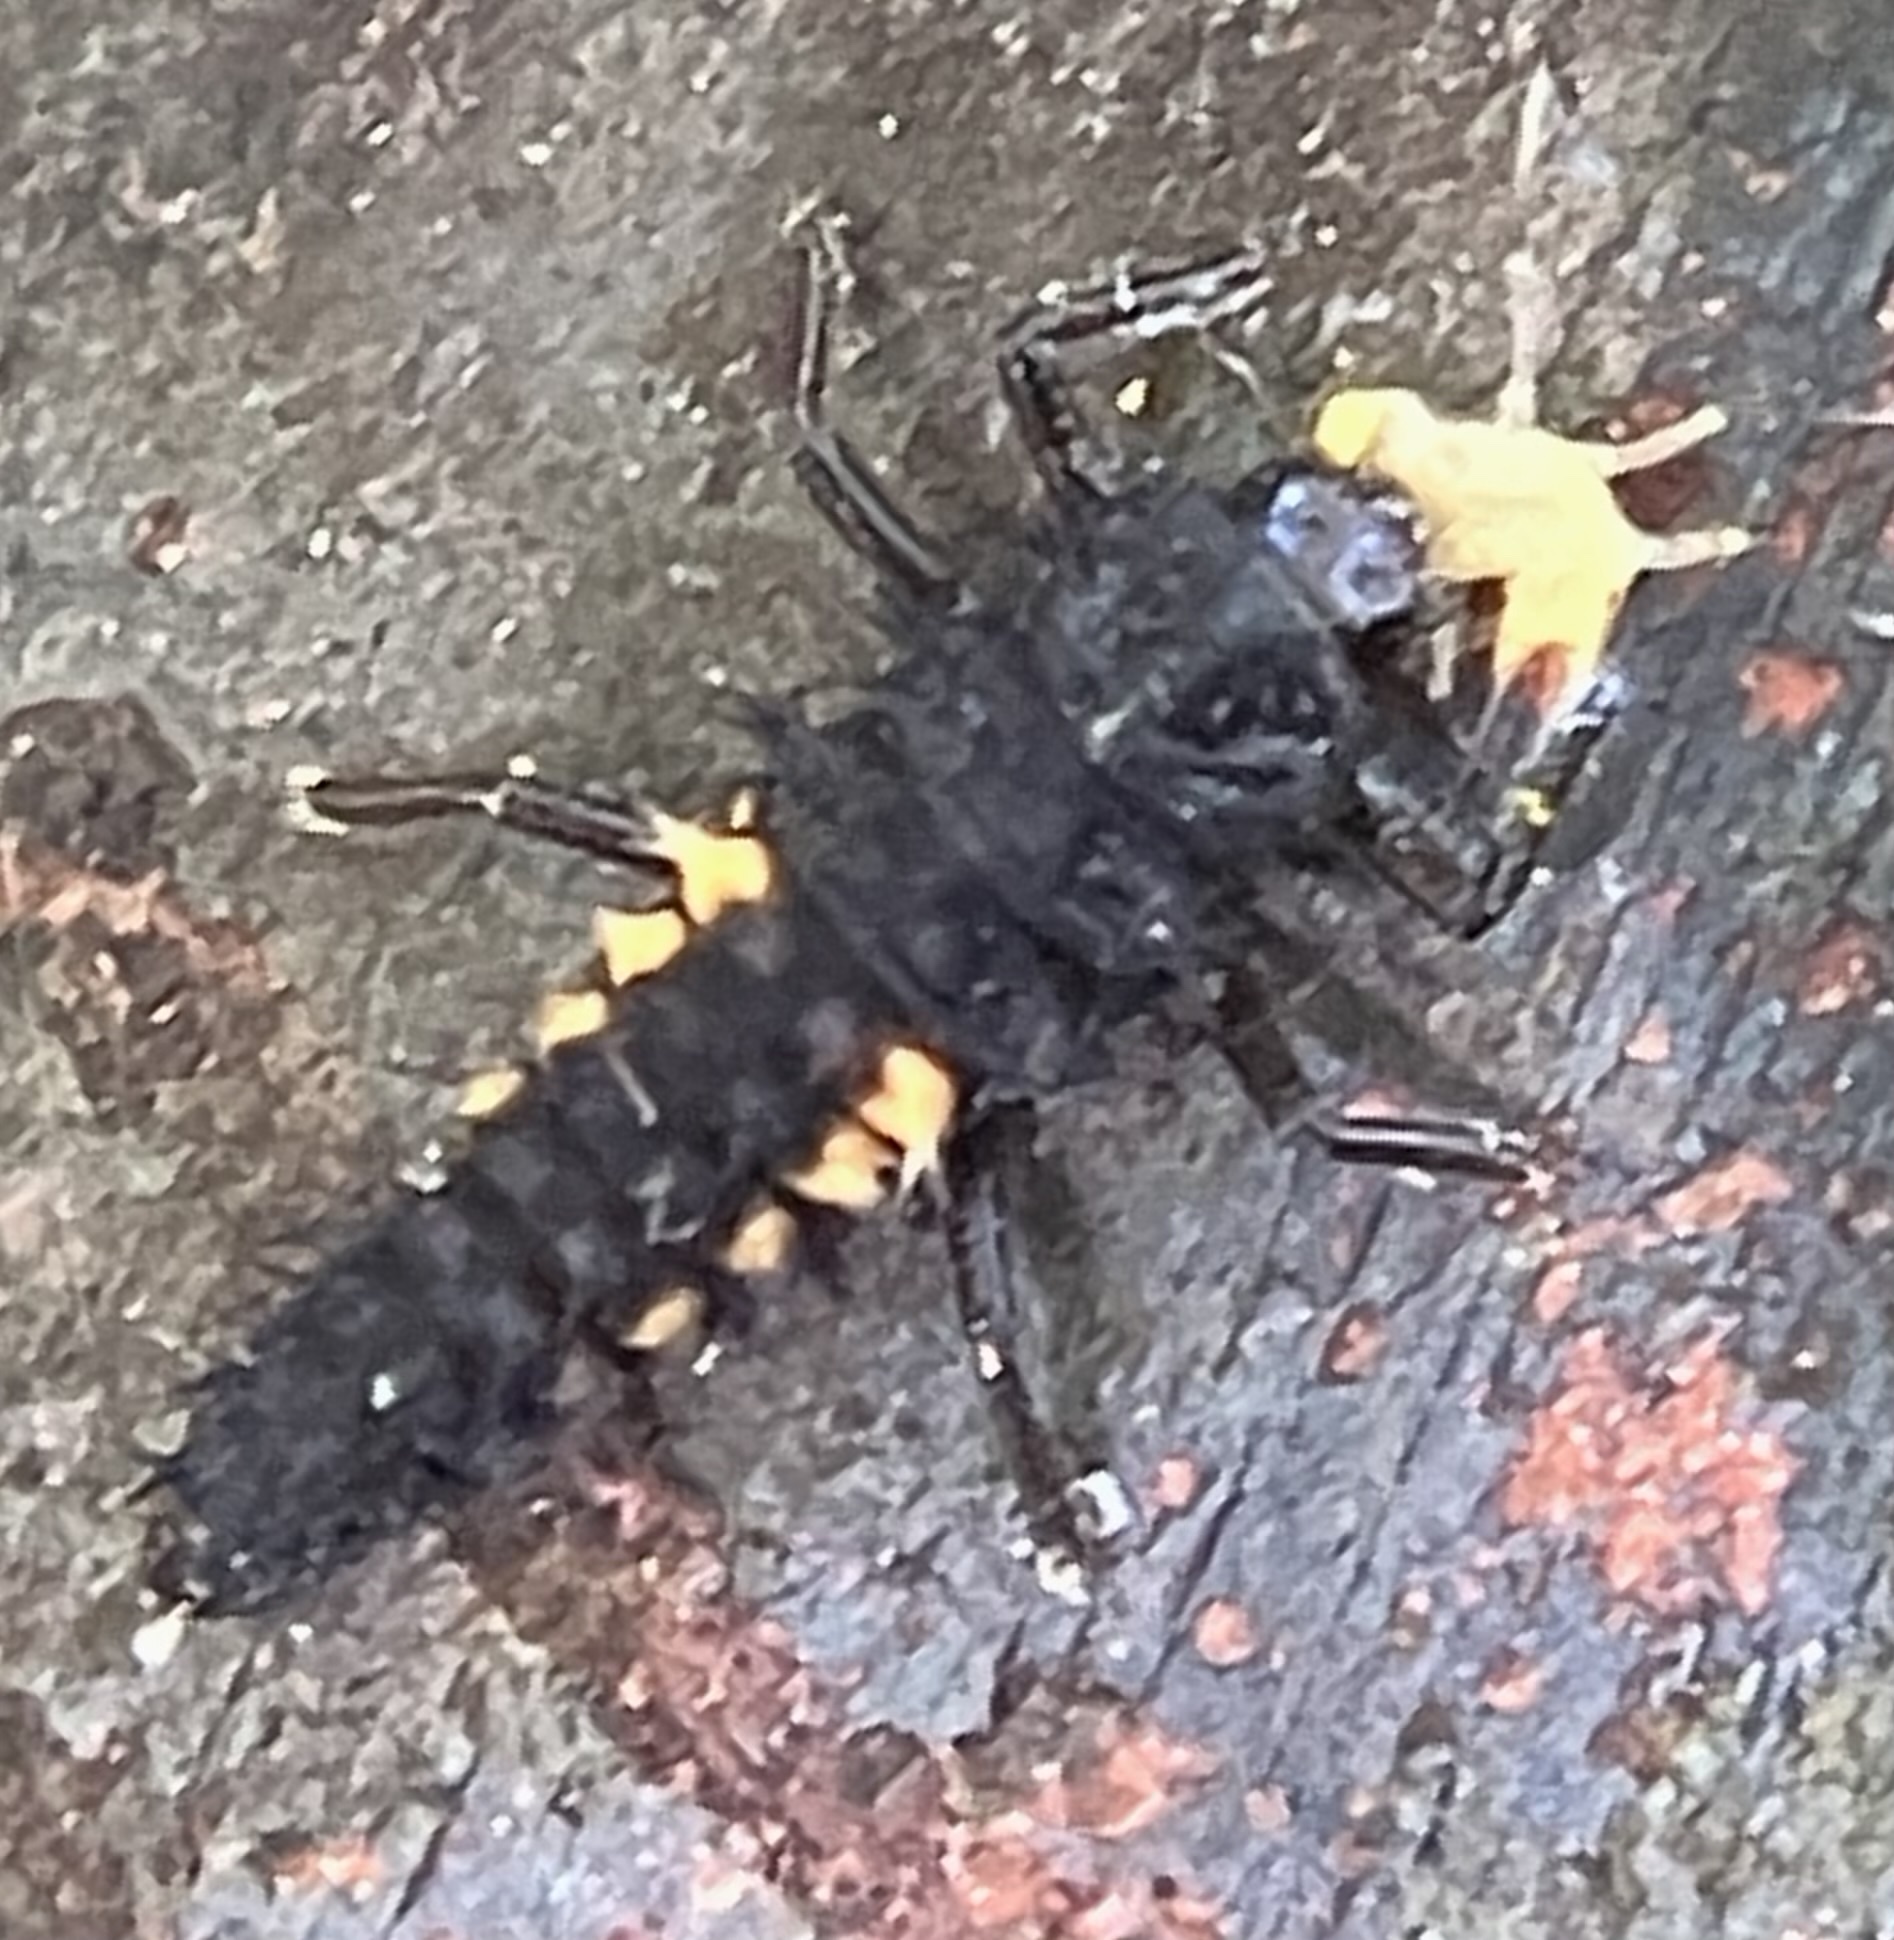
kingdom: Animalia
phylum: Arthropoda
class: Insecta
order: Coleoptera
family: Coccinellidae
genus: Harmonia
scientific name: Harmonia axyridis
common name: Harlequin ladybird
